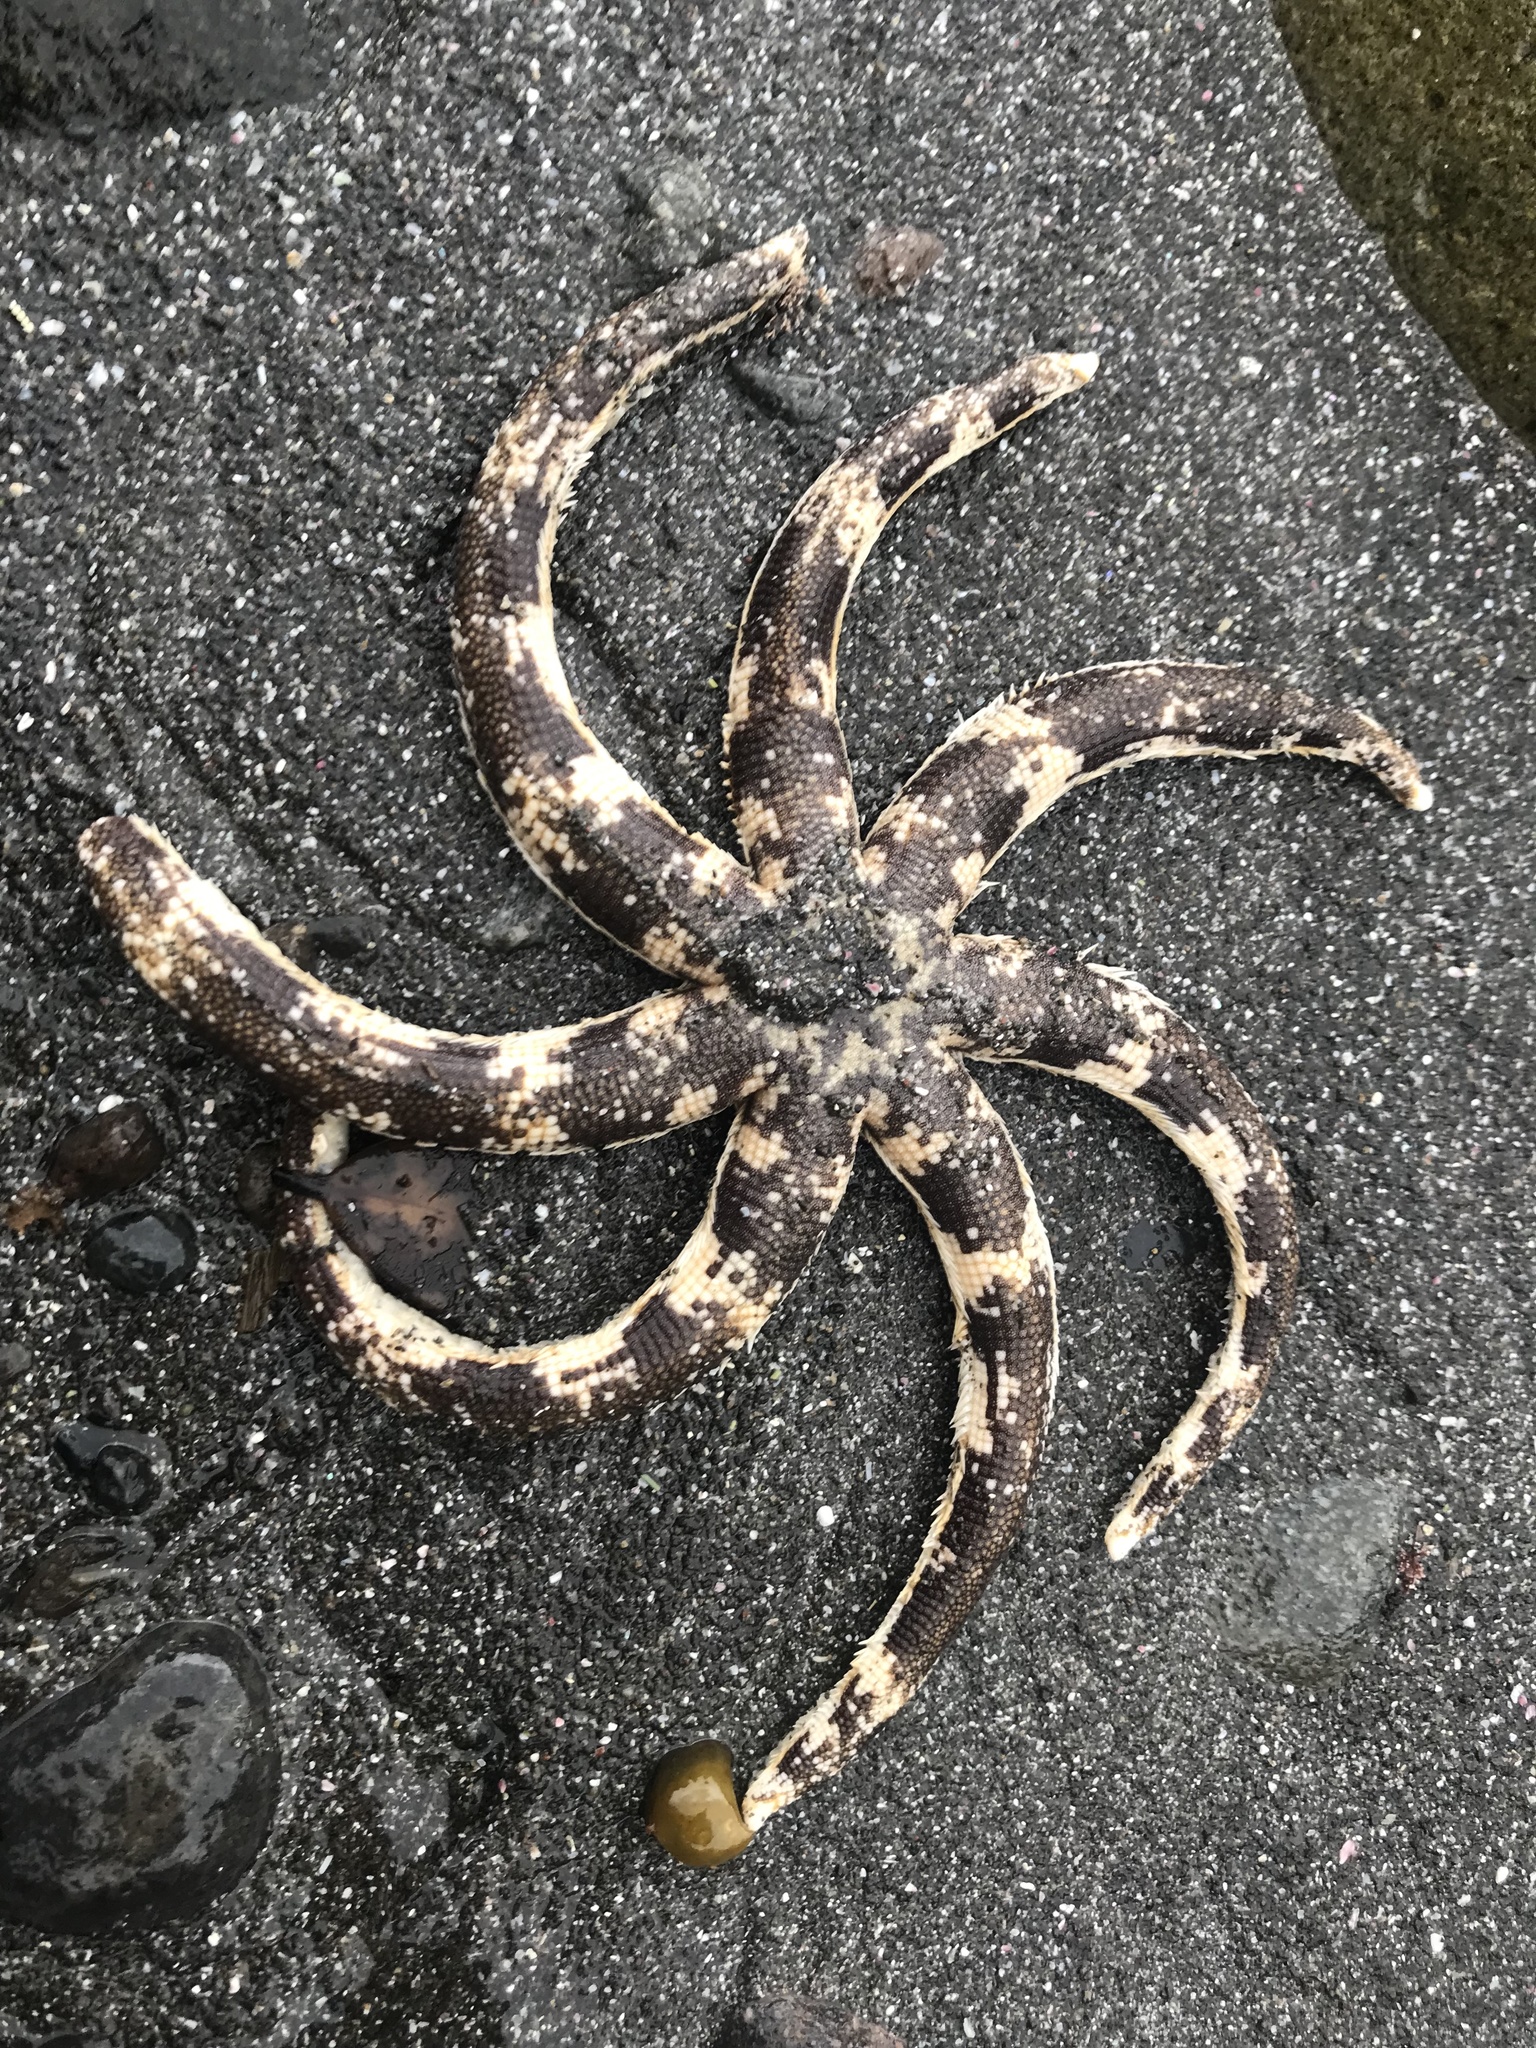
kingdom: Animalia
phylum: Echinodermata
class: Asteroidea
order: Paxillosida
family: Luidiidae
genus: Luidia
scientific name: Luidia australiae
